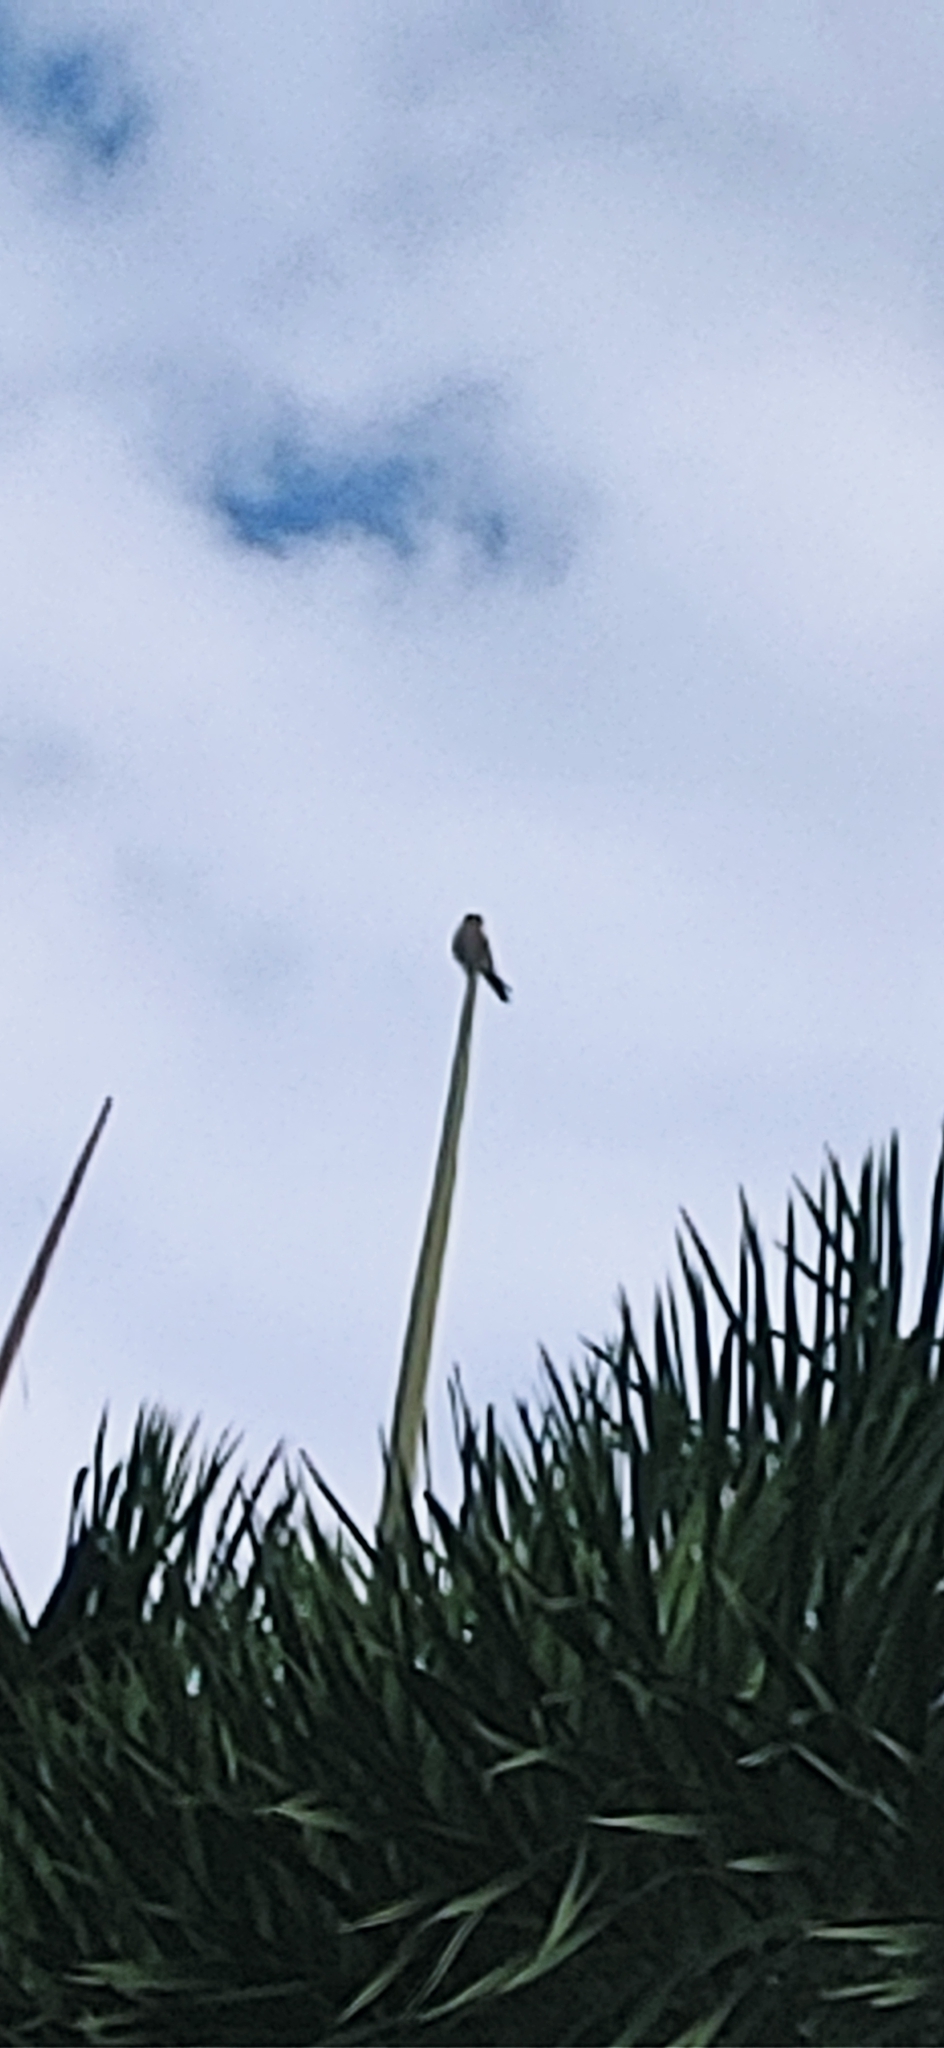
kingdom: Animalia
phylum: Chordata
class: Aves
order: Falconiformes
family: Falconidae
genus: Falco
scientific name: Falco sparverius
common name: American kestrel
